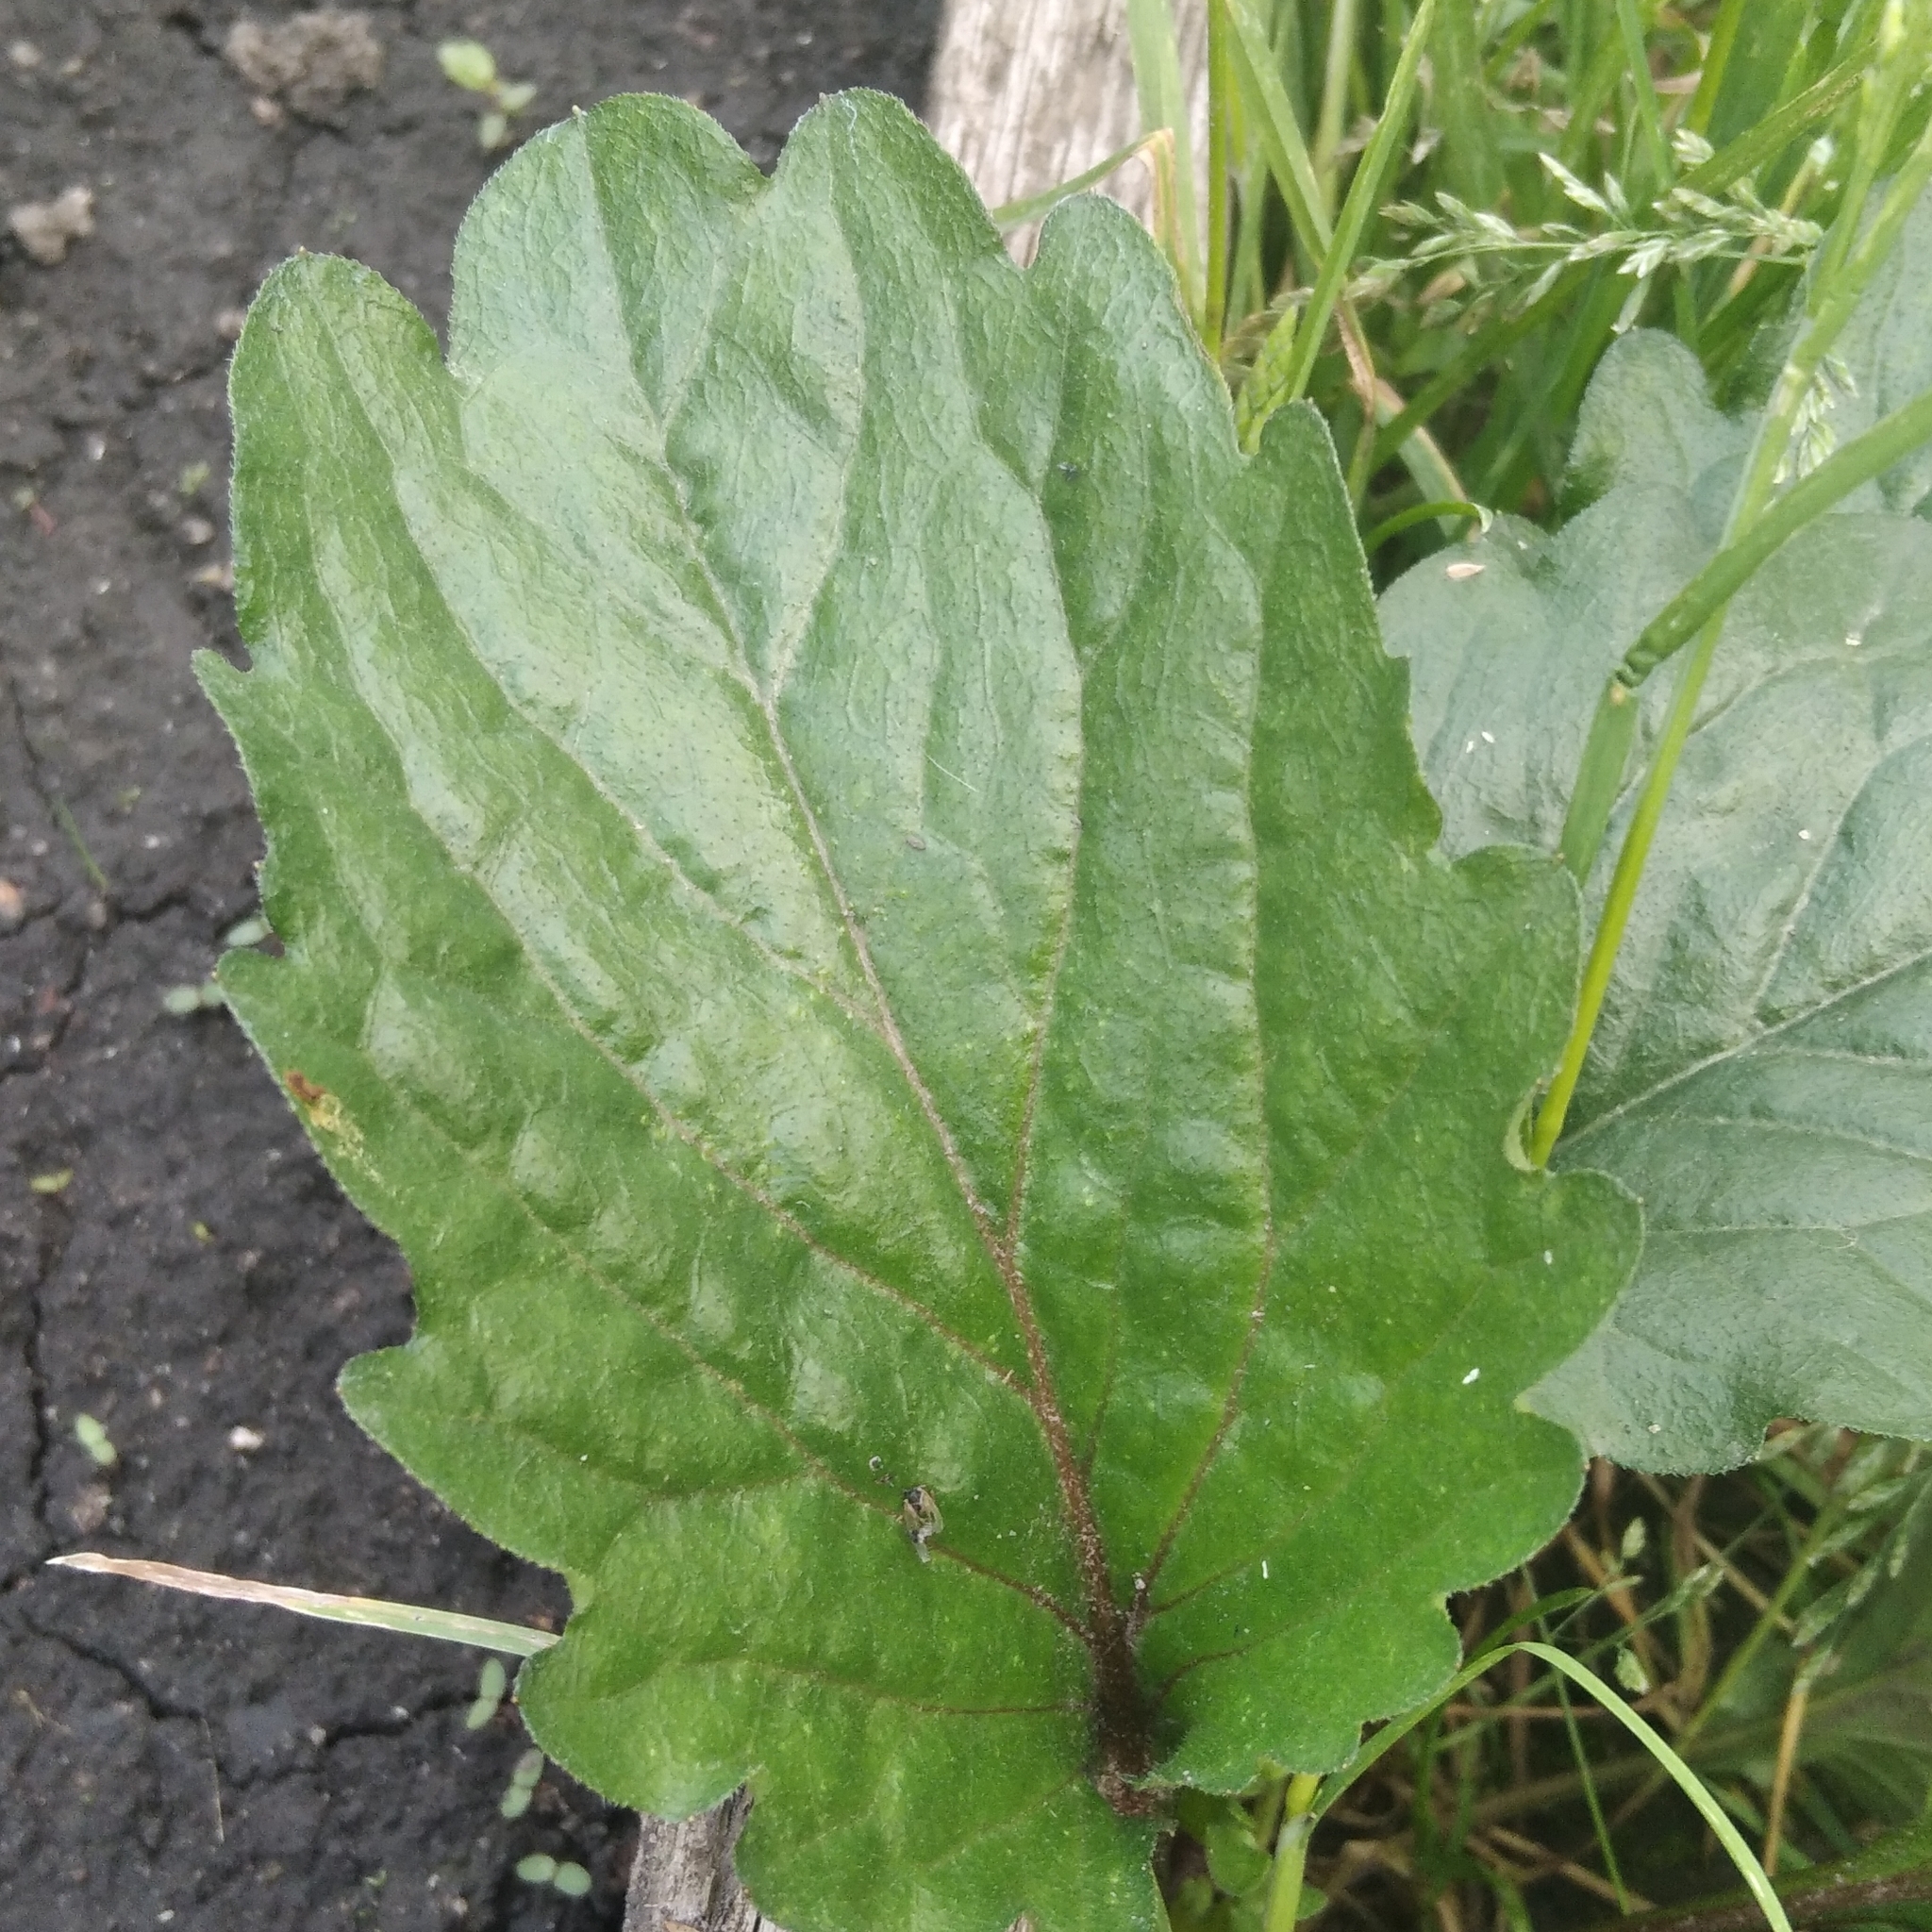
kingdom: Plantae
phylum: Tracheophyta
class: Magnoliopsida
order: Asterales
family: Asteraceae
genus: Erigeron
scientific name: Erigeron annuus
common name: Tall fleabane
